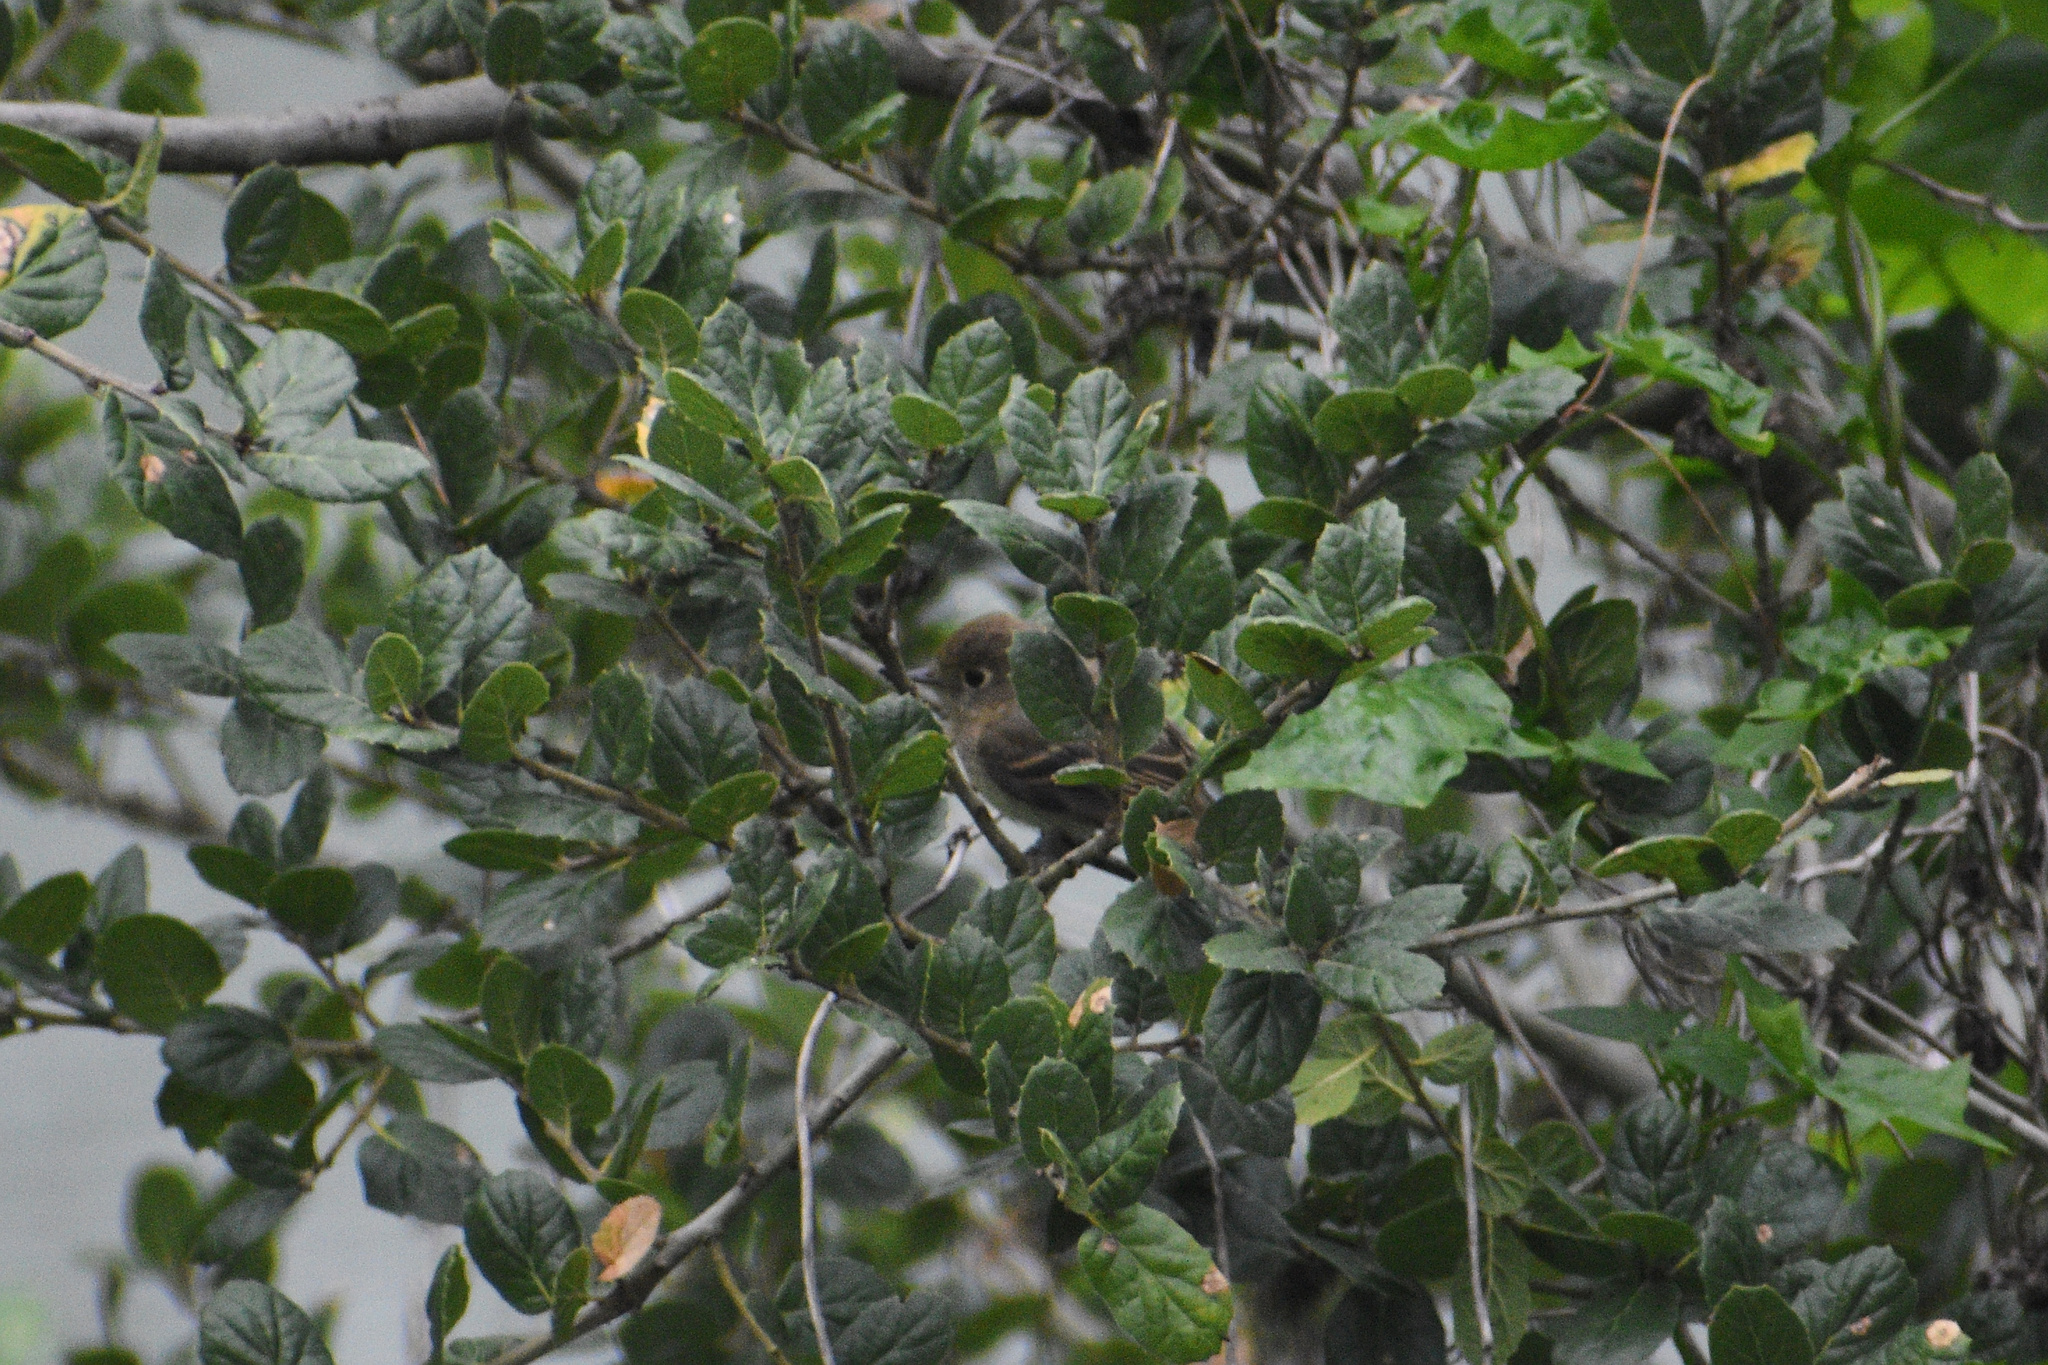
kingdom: Animalia
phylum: Chordata
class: Aves
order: Passeriformes
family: Tyrannidae
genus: Empidonax
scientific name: Empidonax difficilis
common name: Pacific-slope flycatcher
